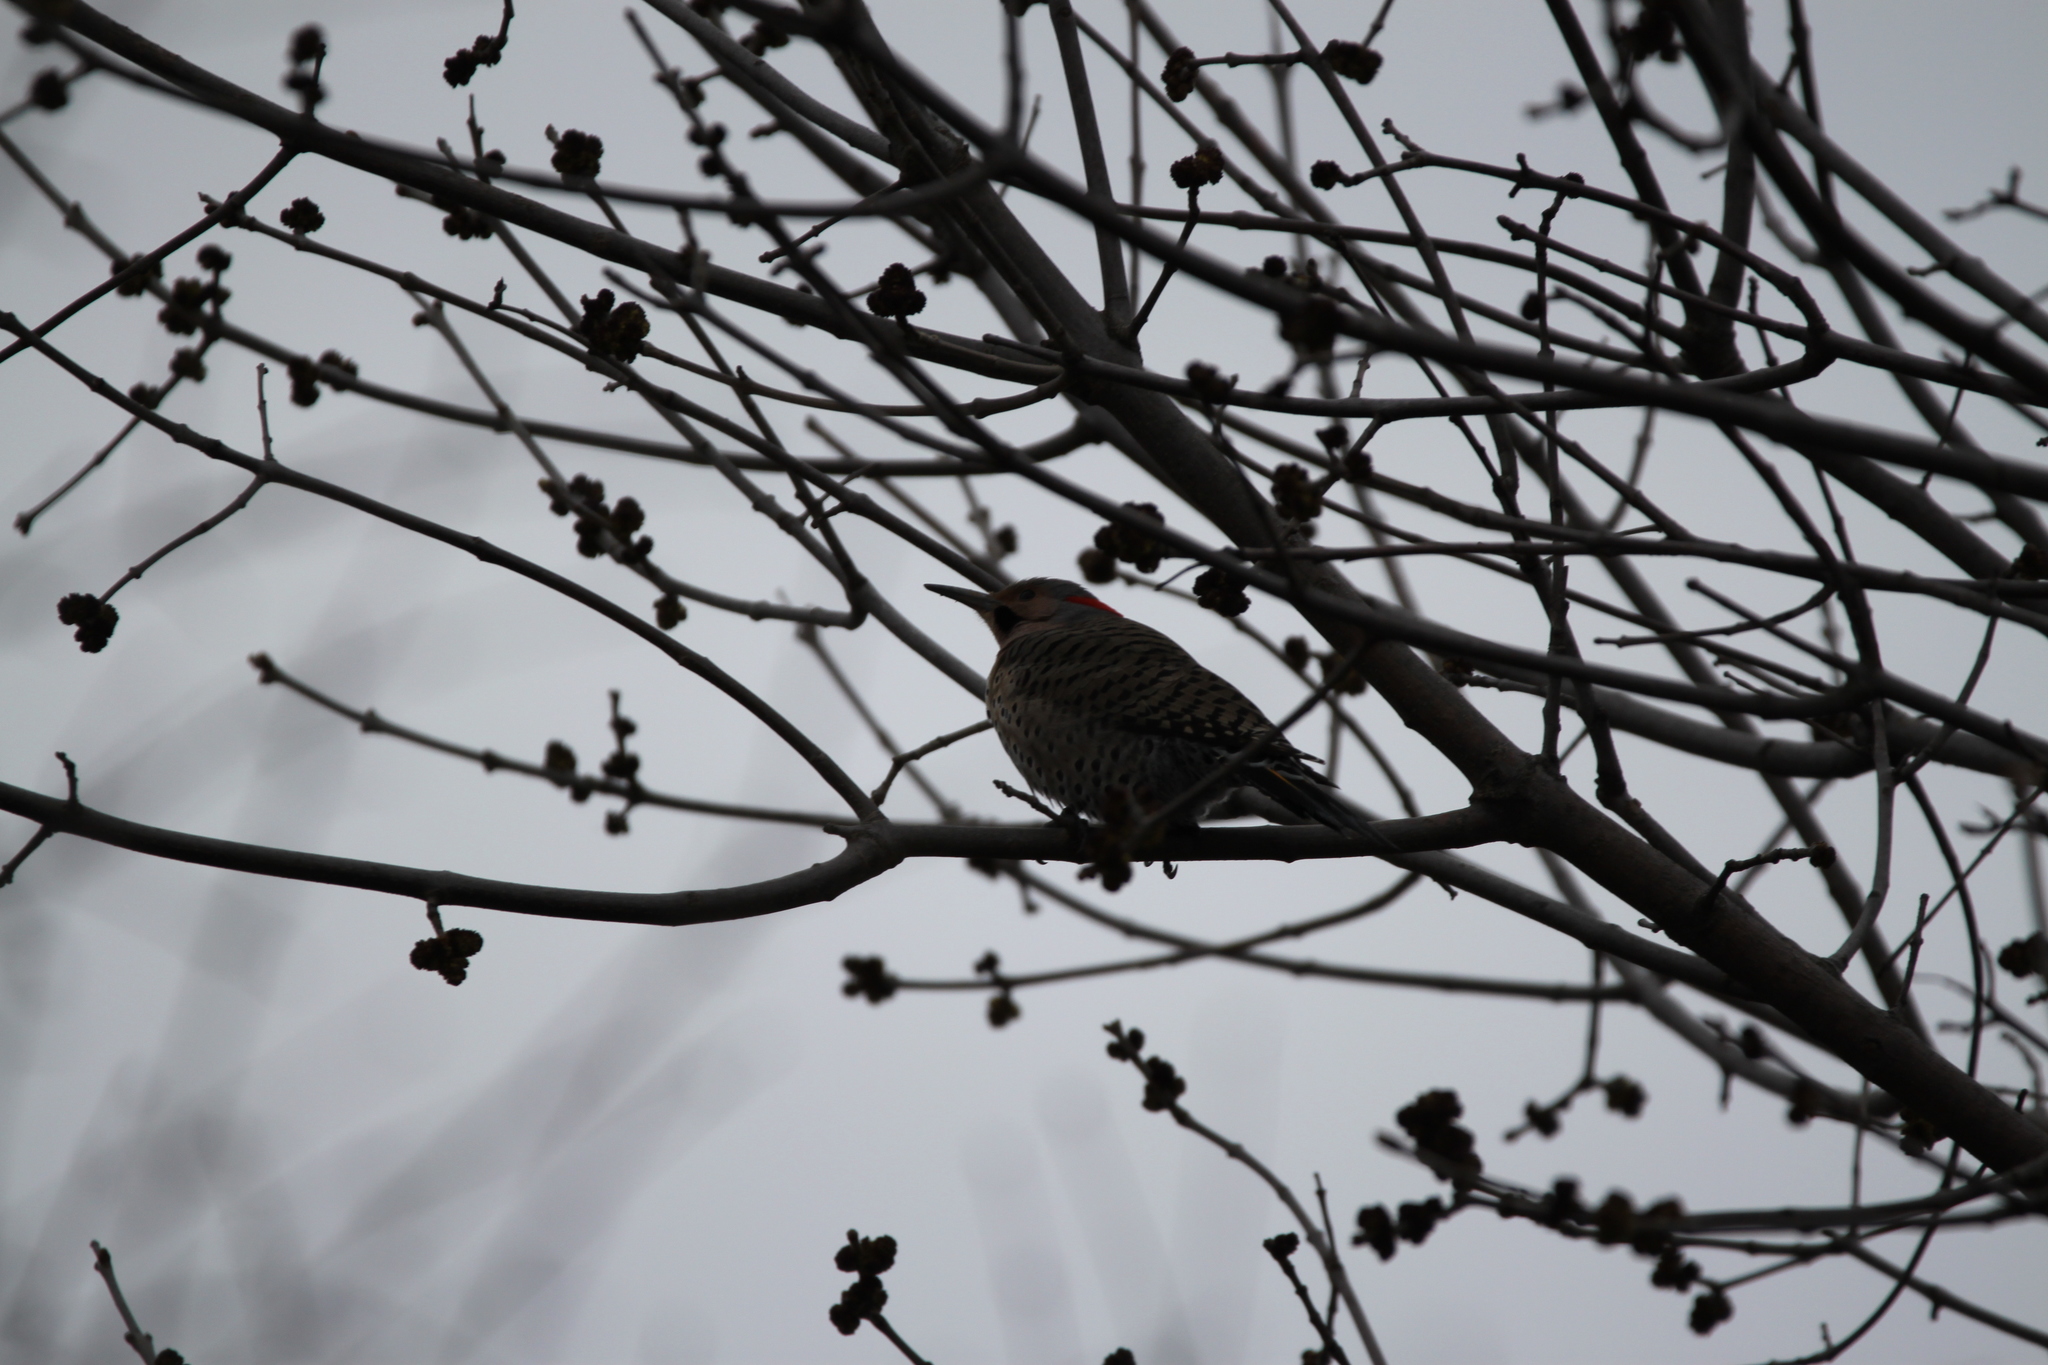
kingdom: Animalia
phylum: Chordata
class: Aves
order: Piciformes
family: Picidae
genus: Colaptes
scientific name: Colaptes auratus
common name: Northern flicker
